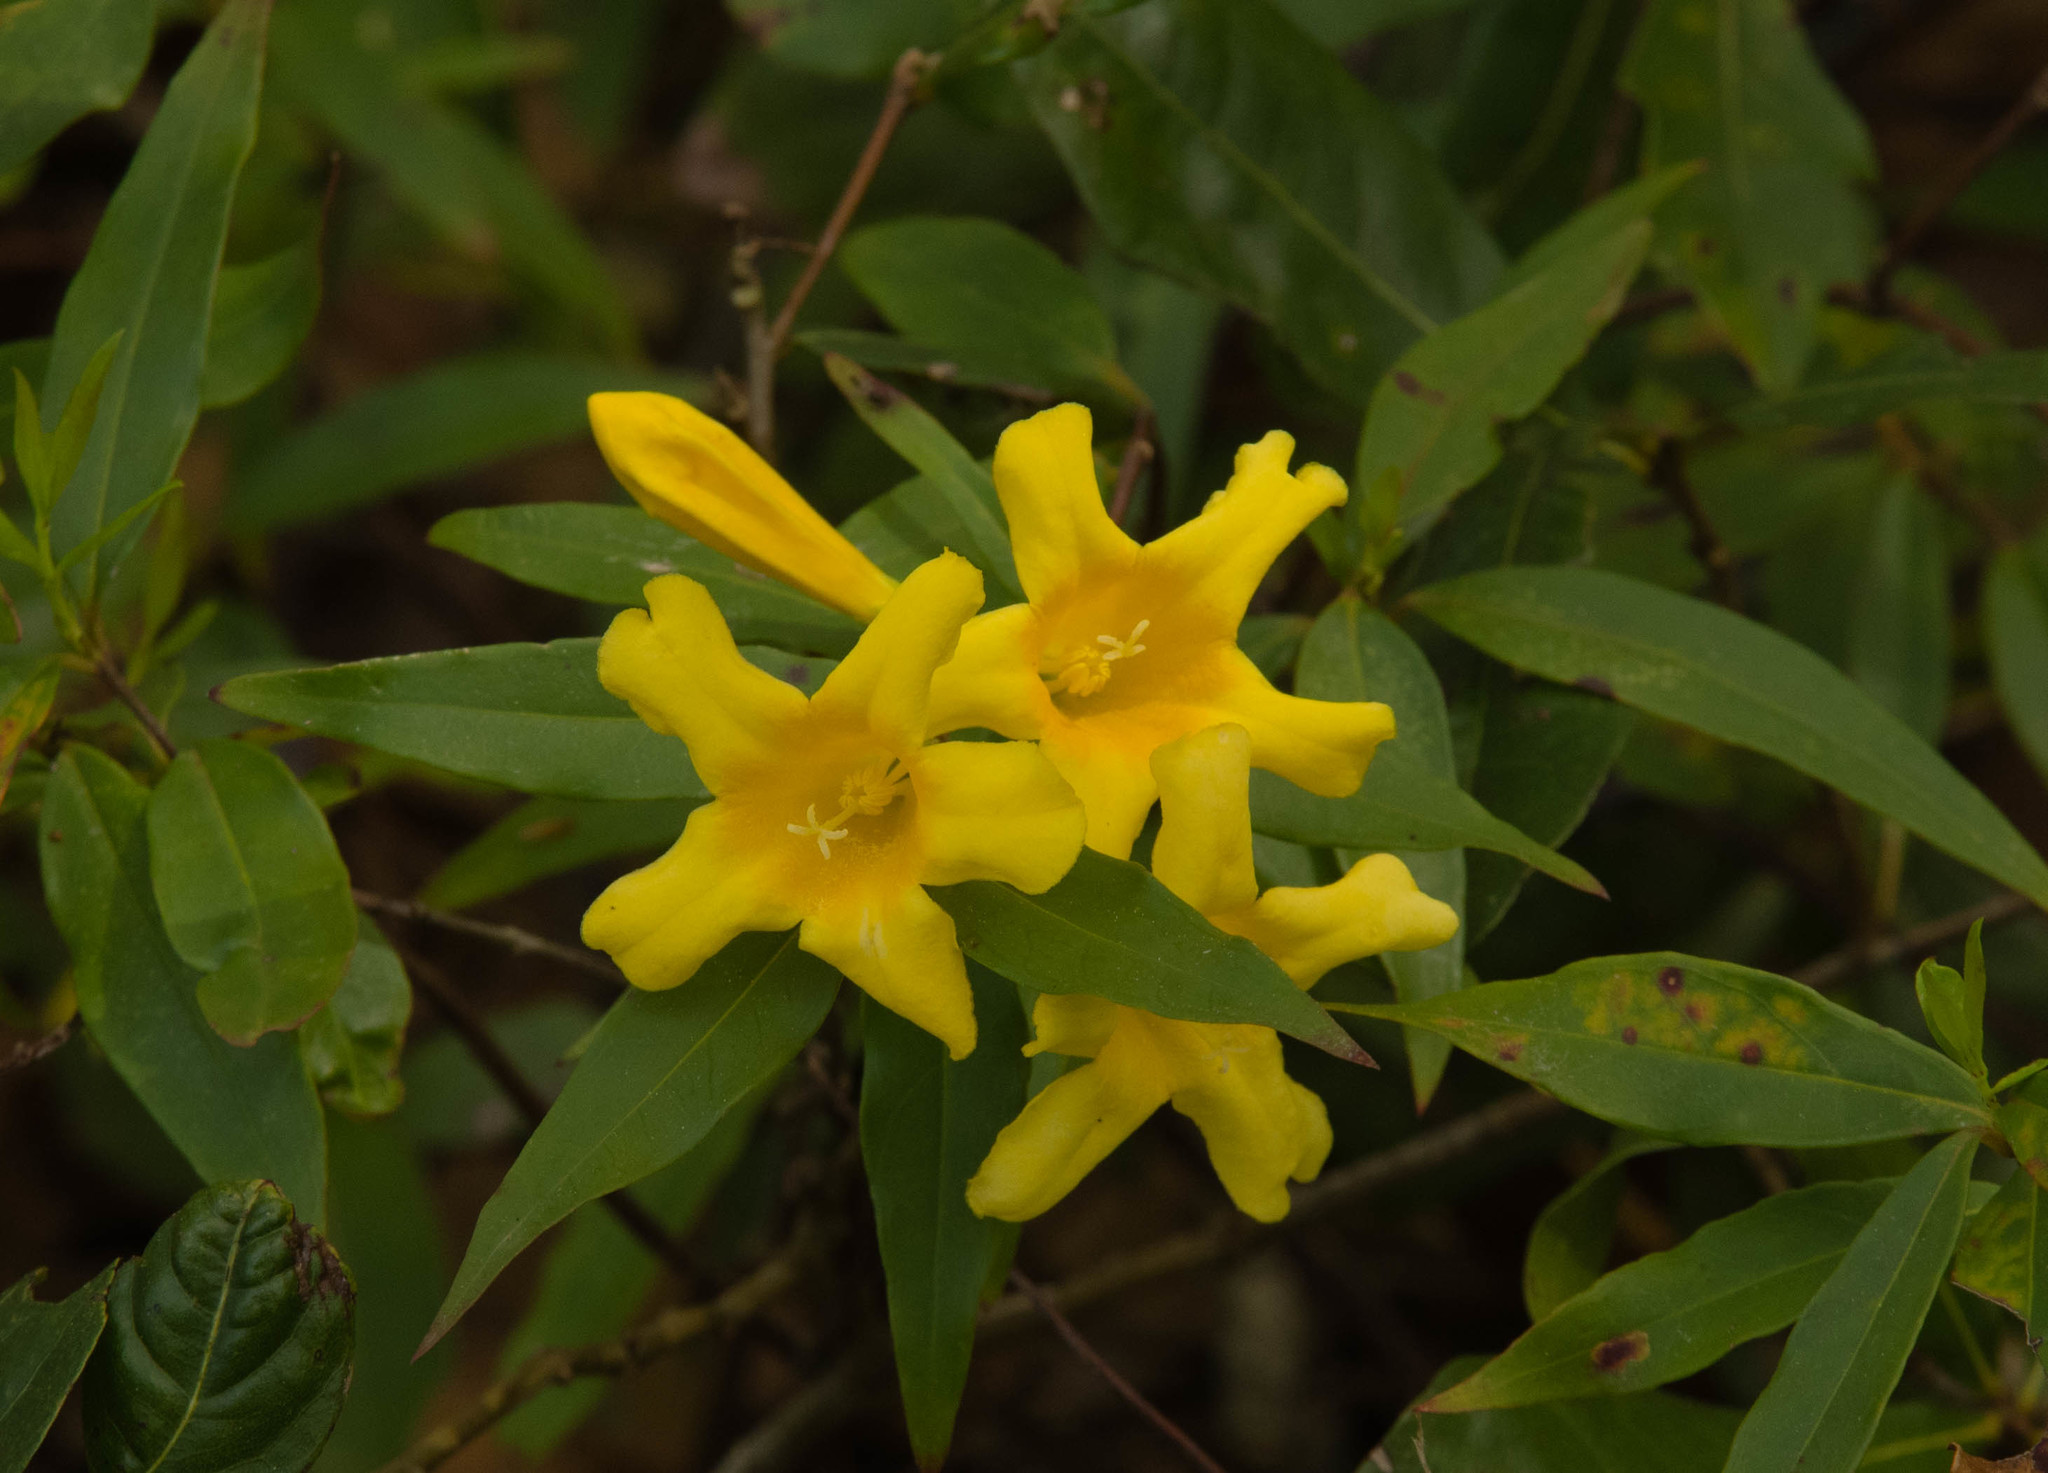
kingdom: Plantae
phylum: Tracheophyta
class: Magnoliopsida
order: Gentianales
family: Gelsemiaceae
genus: Gelsemium
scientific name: Gelsemium sempervirens
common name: Carolina-jasmine
